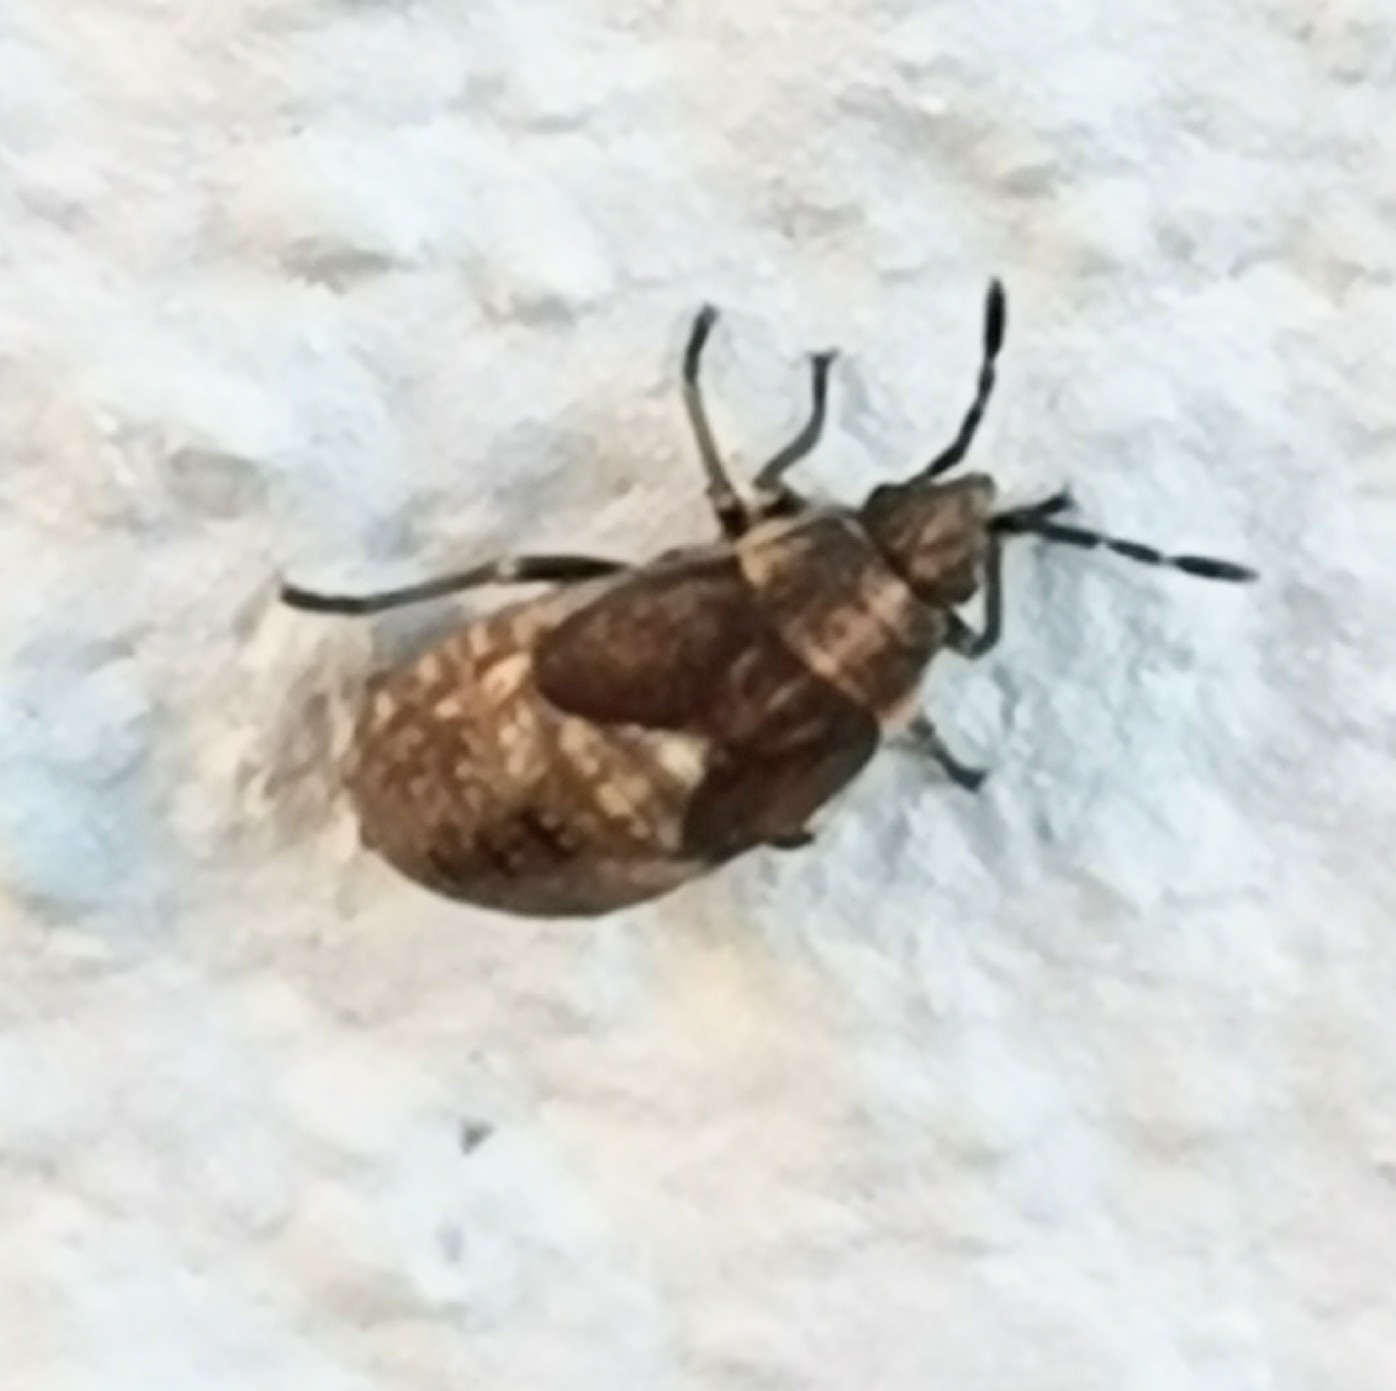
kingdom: Animalia
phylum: Arthropoda
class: Insecta
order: Hemiptera
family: Lygaeidae
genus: Kleidocerys
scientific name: Kleidocerys resedae
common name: Birch catkin bug
